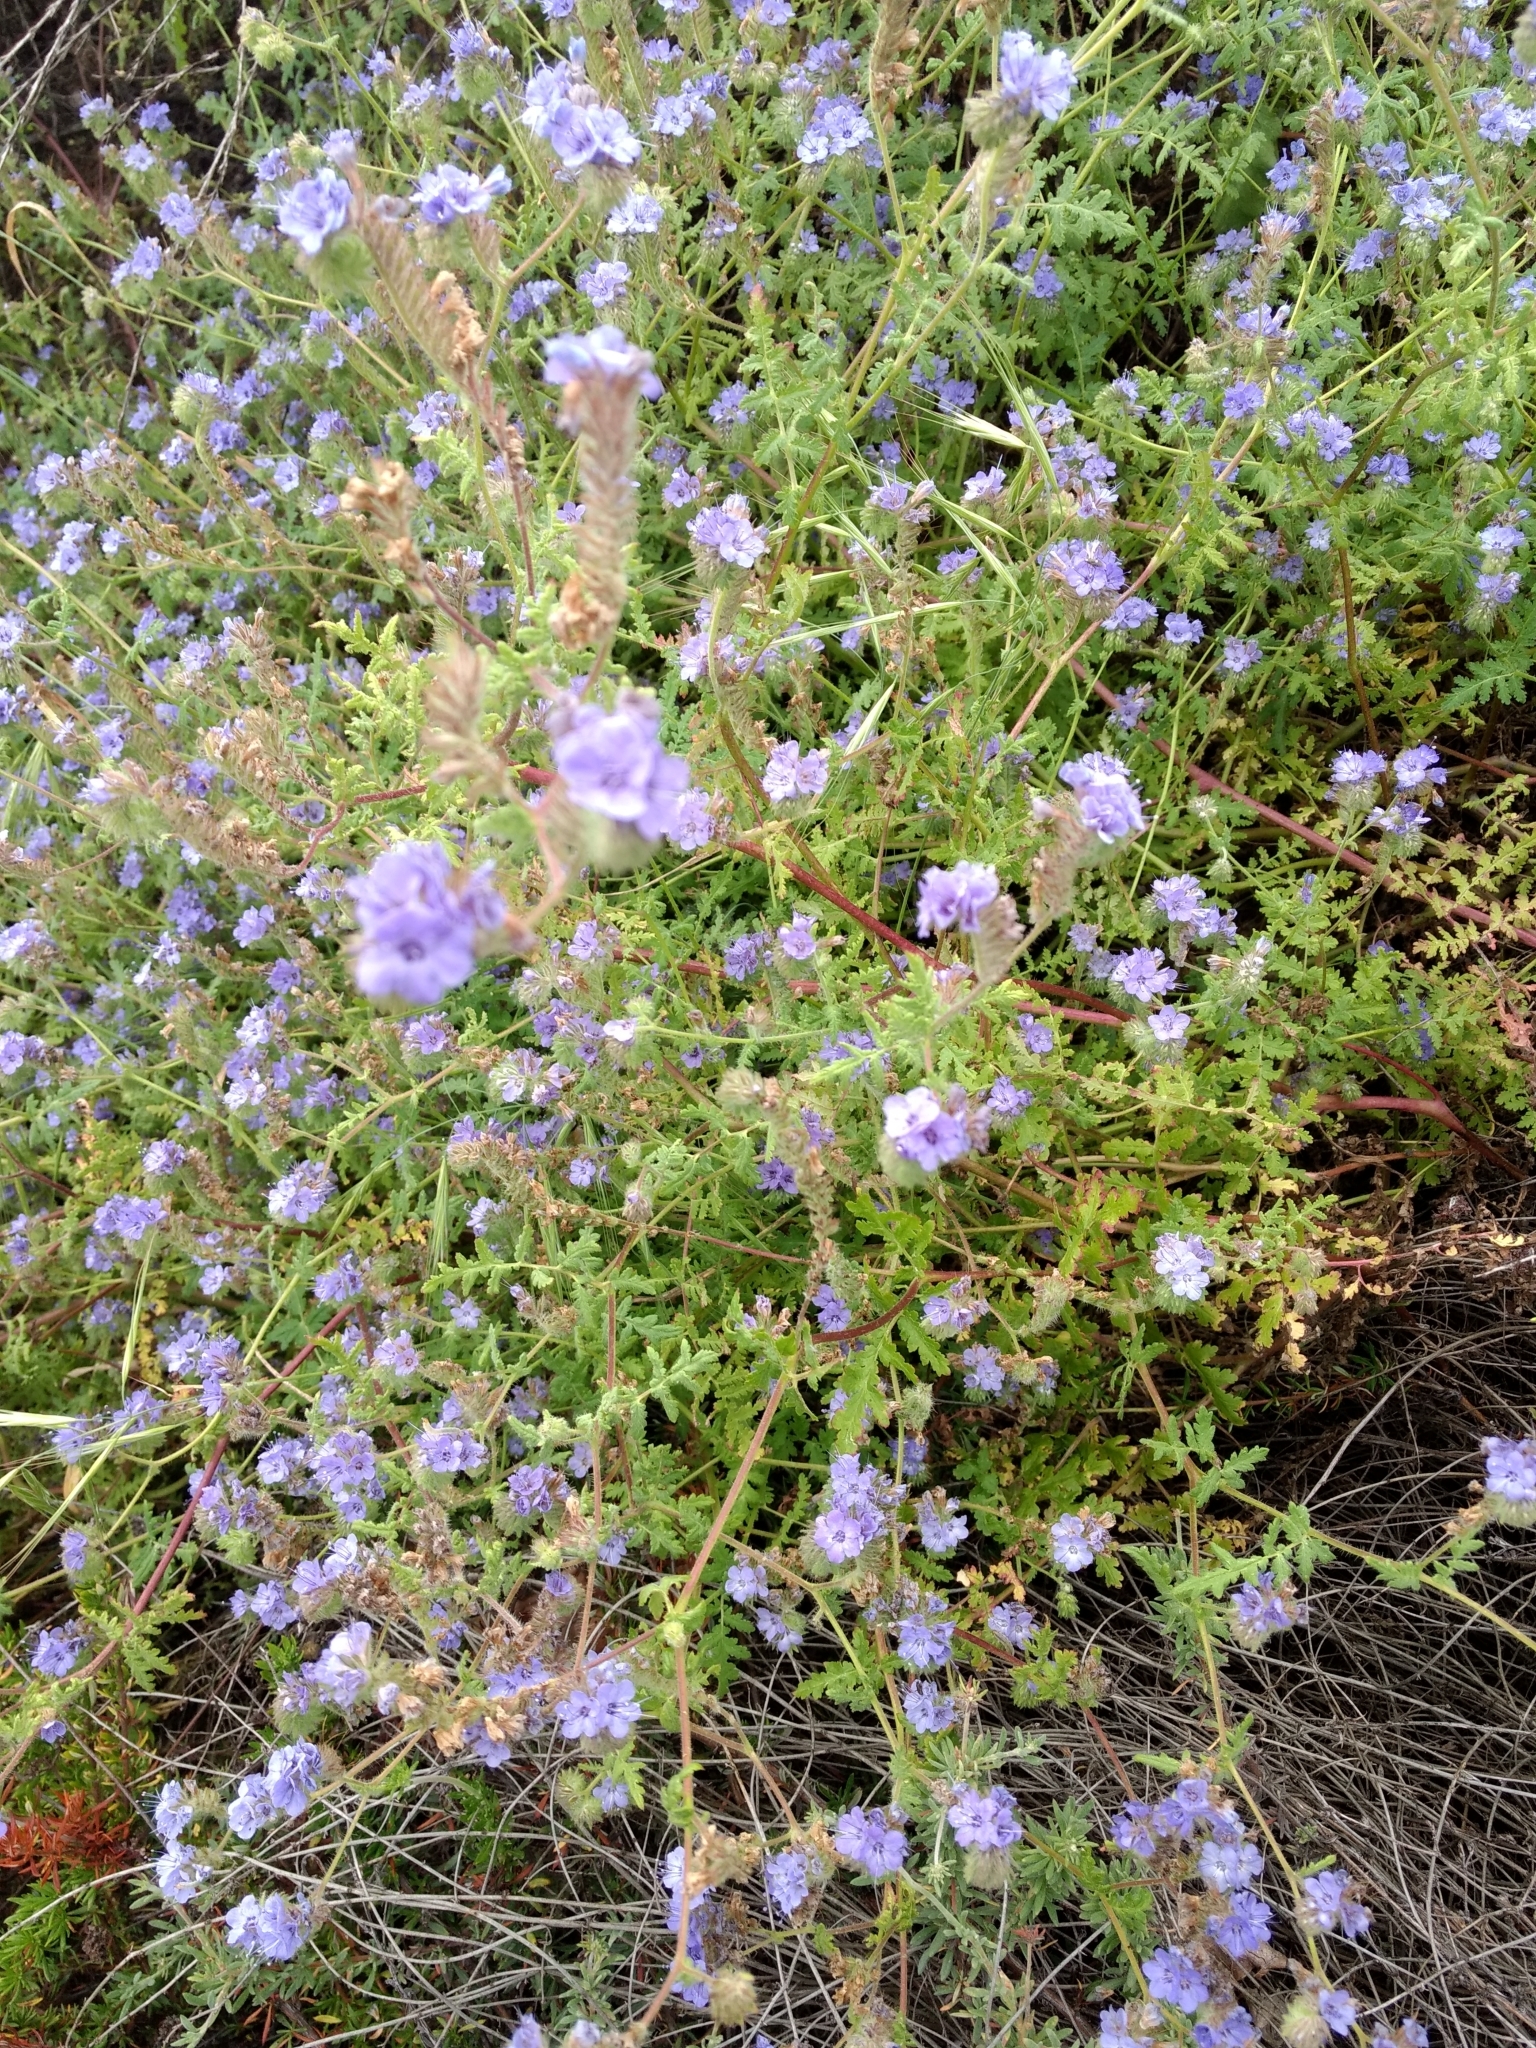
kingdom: Plantae
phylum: Tracheophyta
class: Magnoliopsida
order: Boraginales
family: Hydrophyllaceae
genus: Phacelia
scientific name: Phacelia distans
